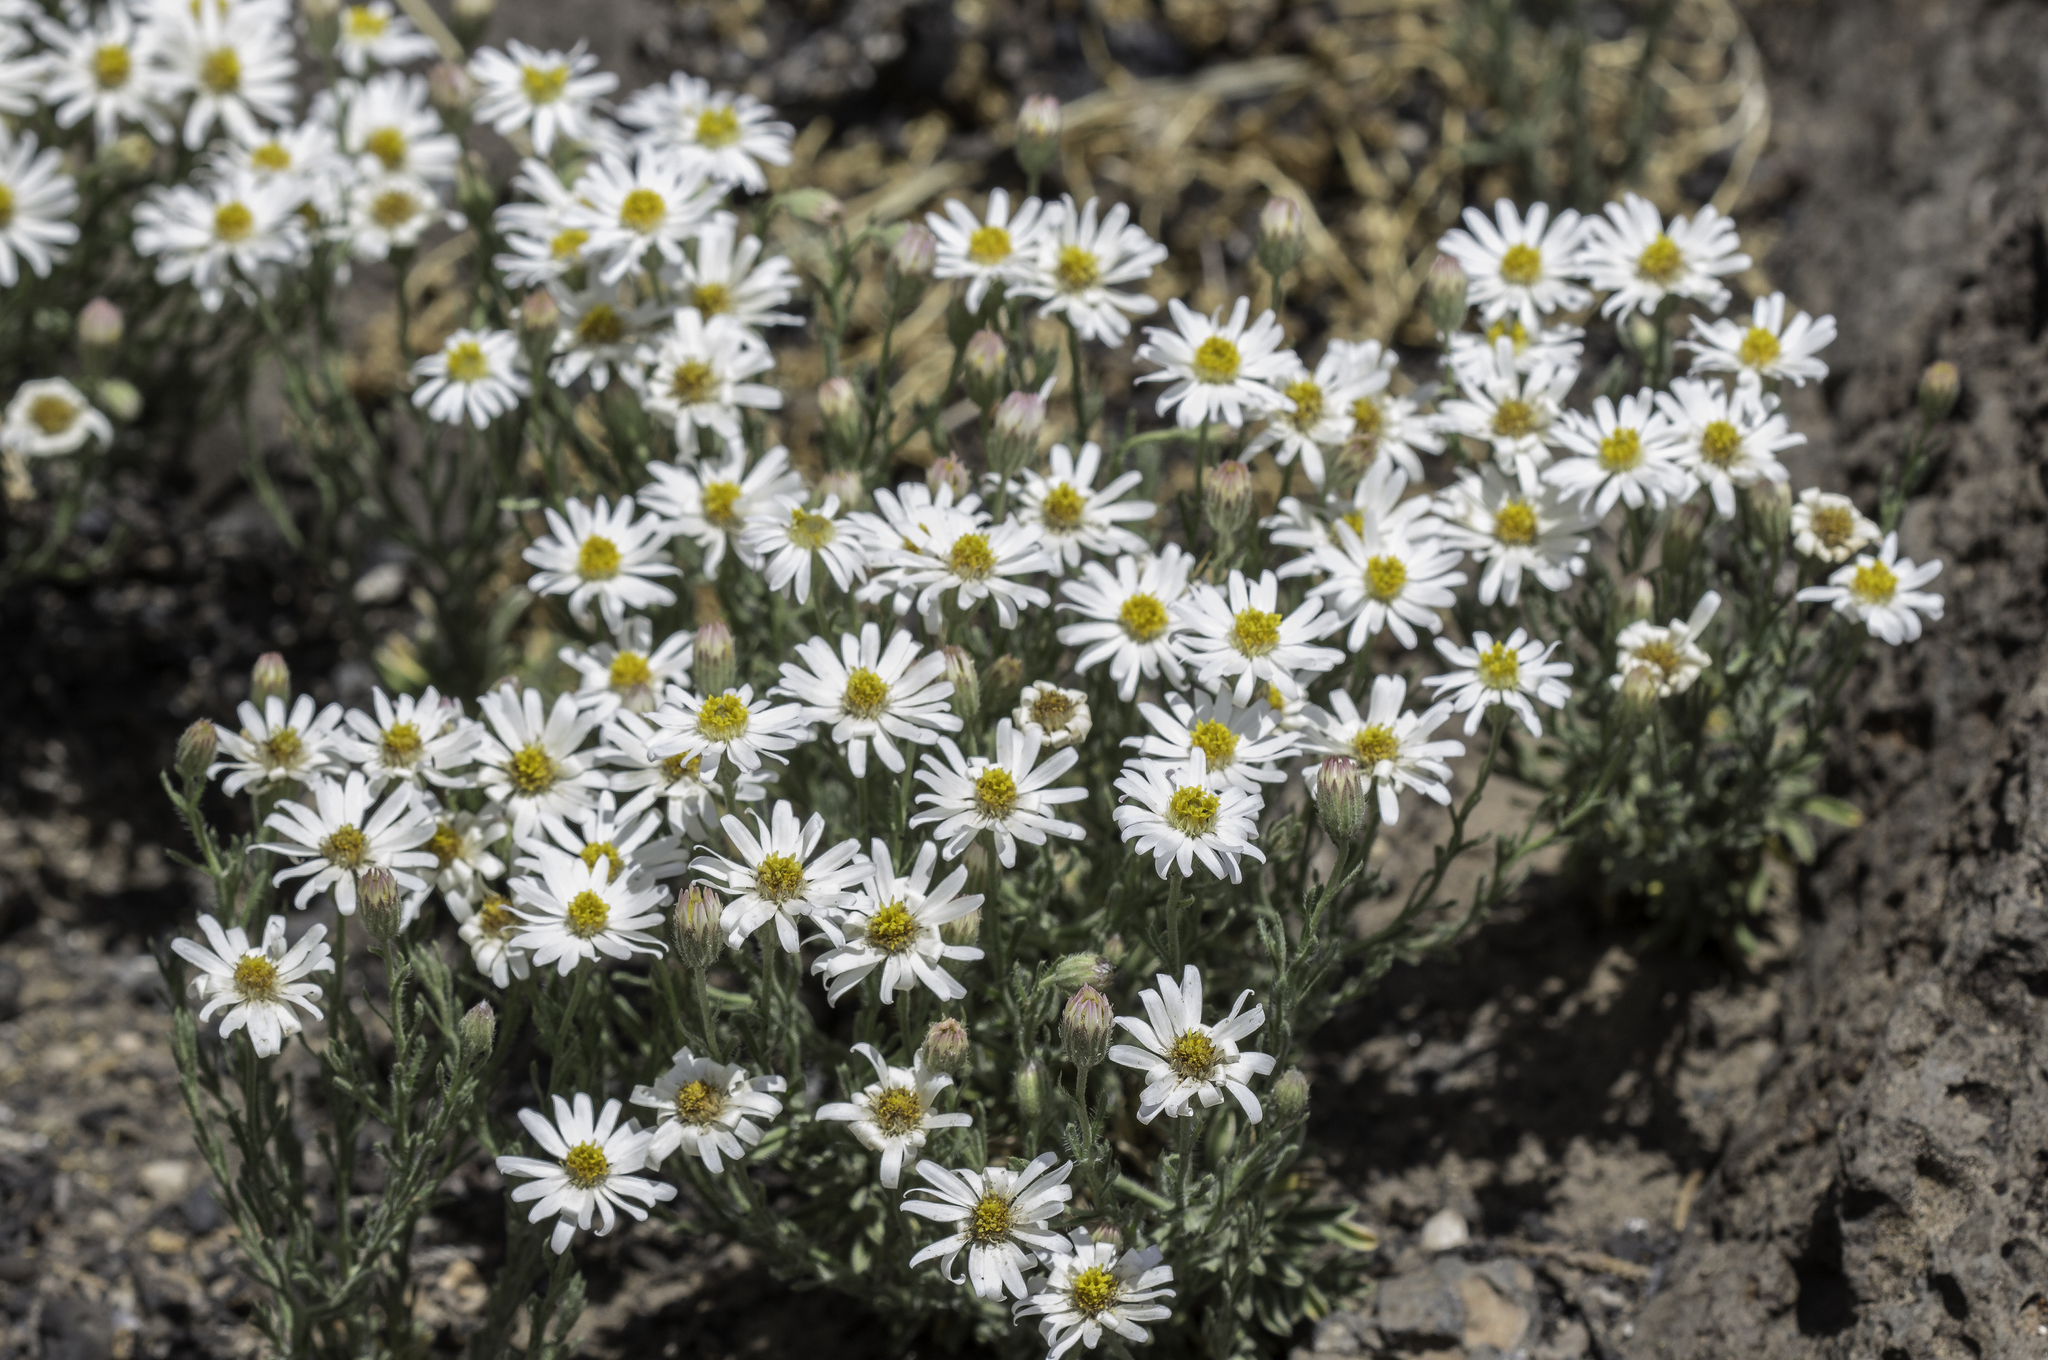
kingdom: Plantae
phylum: Tracheophyta
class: Magnoliopsida
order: Asterales
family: Asteraceae
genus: Chaetopappa
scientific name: Chaetopappa ericoides
